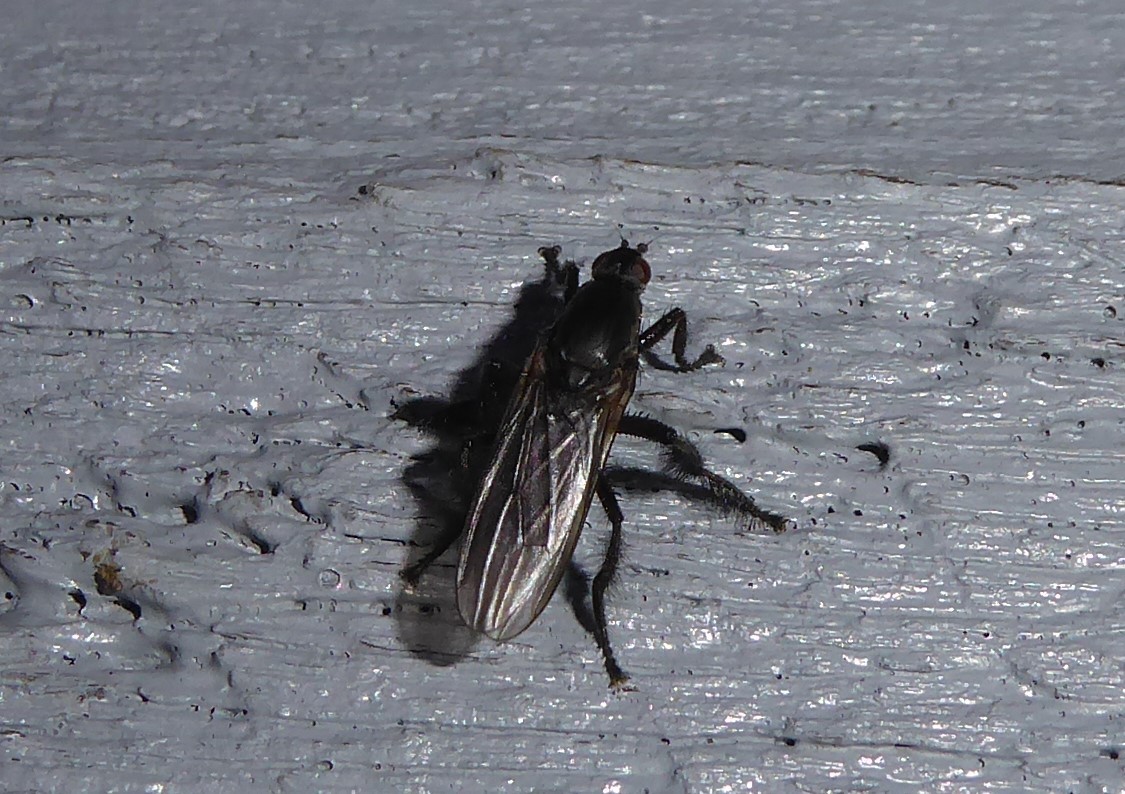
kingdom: Animalia
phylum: Arthropoda
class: Insecta
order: Diptera
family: Coelopidae
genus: Chaetocoelopa
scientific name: Chaetocoelopa littoralis
